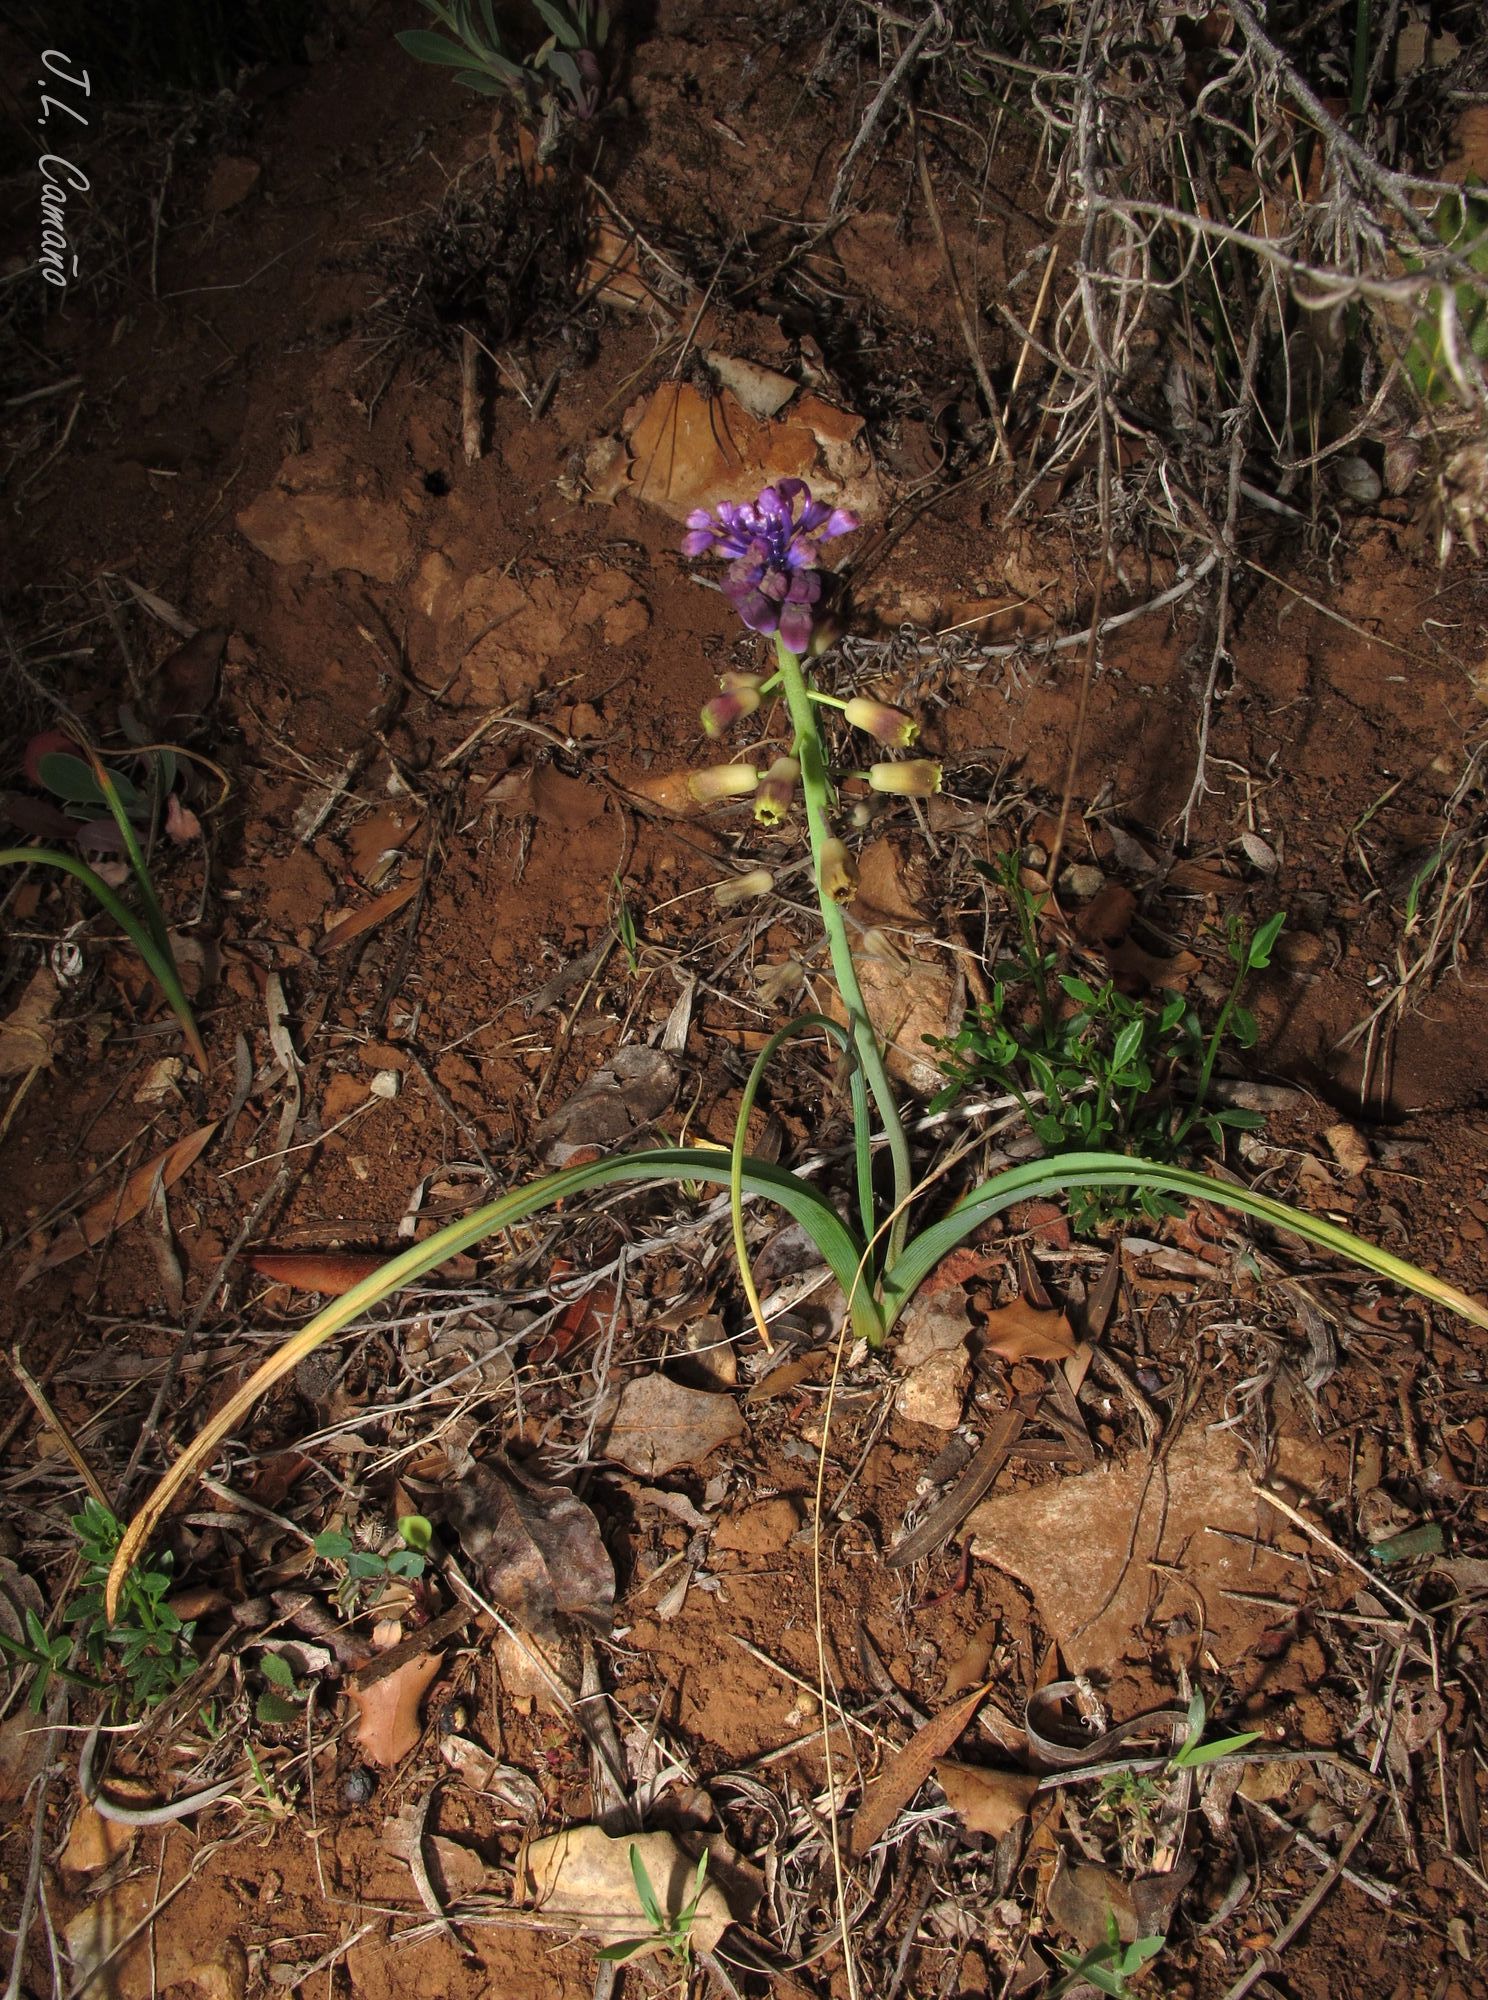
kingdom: Plantae
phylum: Tracheophyta
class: Liliopsida
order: Asparagales
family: Asparagaceae
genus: Muscari
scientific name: Muscari comosum
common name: Tassel hyacinth
